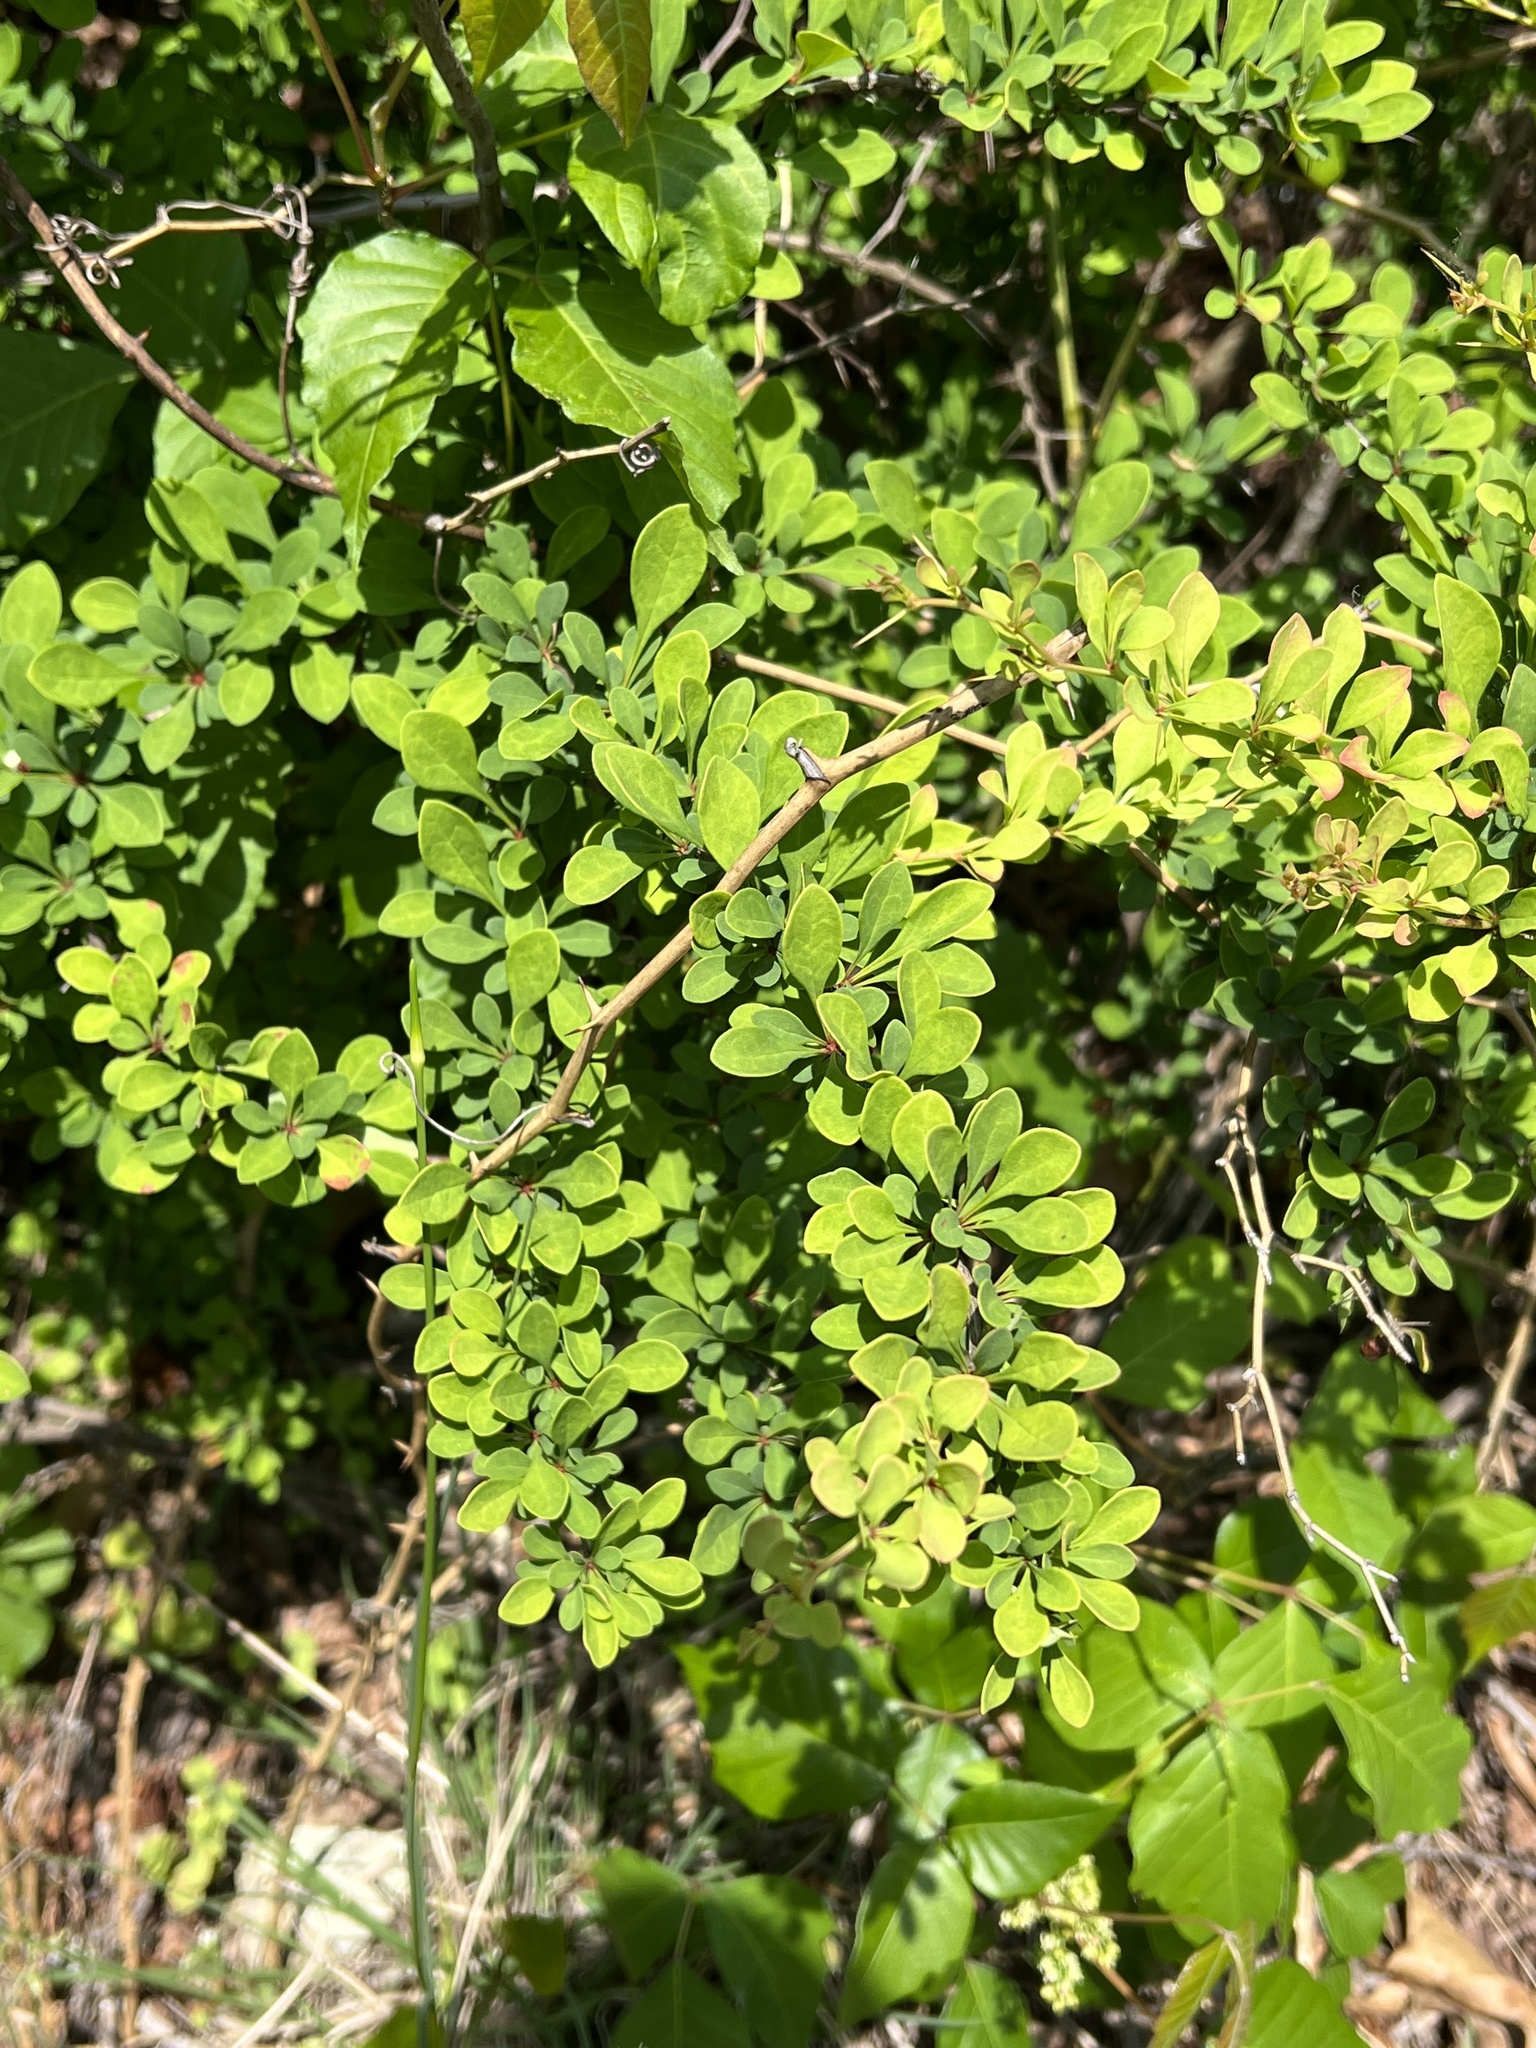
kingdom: Plantae
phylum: Tracheophyta
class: Magnoliopsida
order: Ranunculales
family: Berberidaceae
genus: Berberis
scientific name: Berberis thunbergii
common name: Japanese barberry
